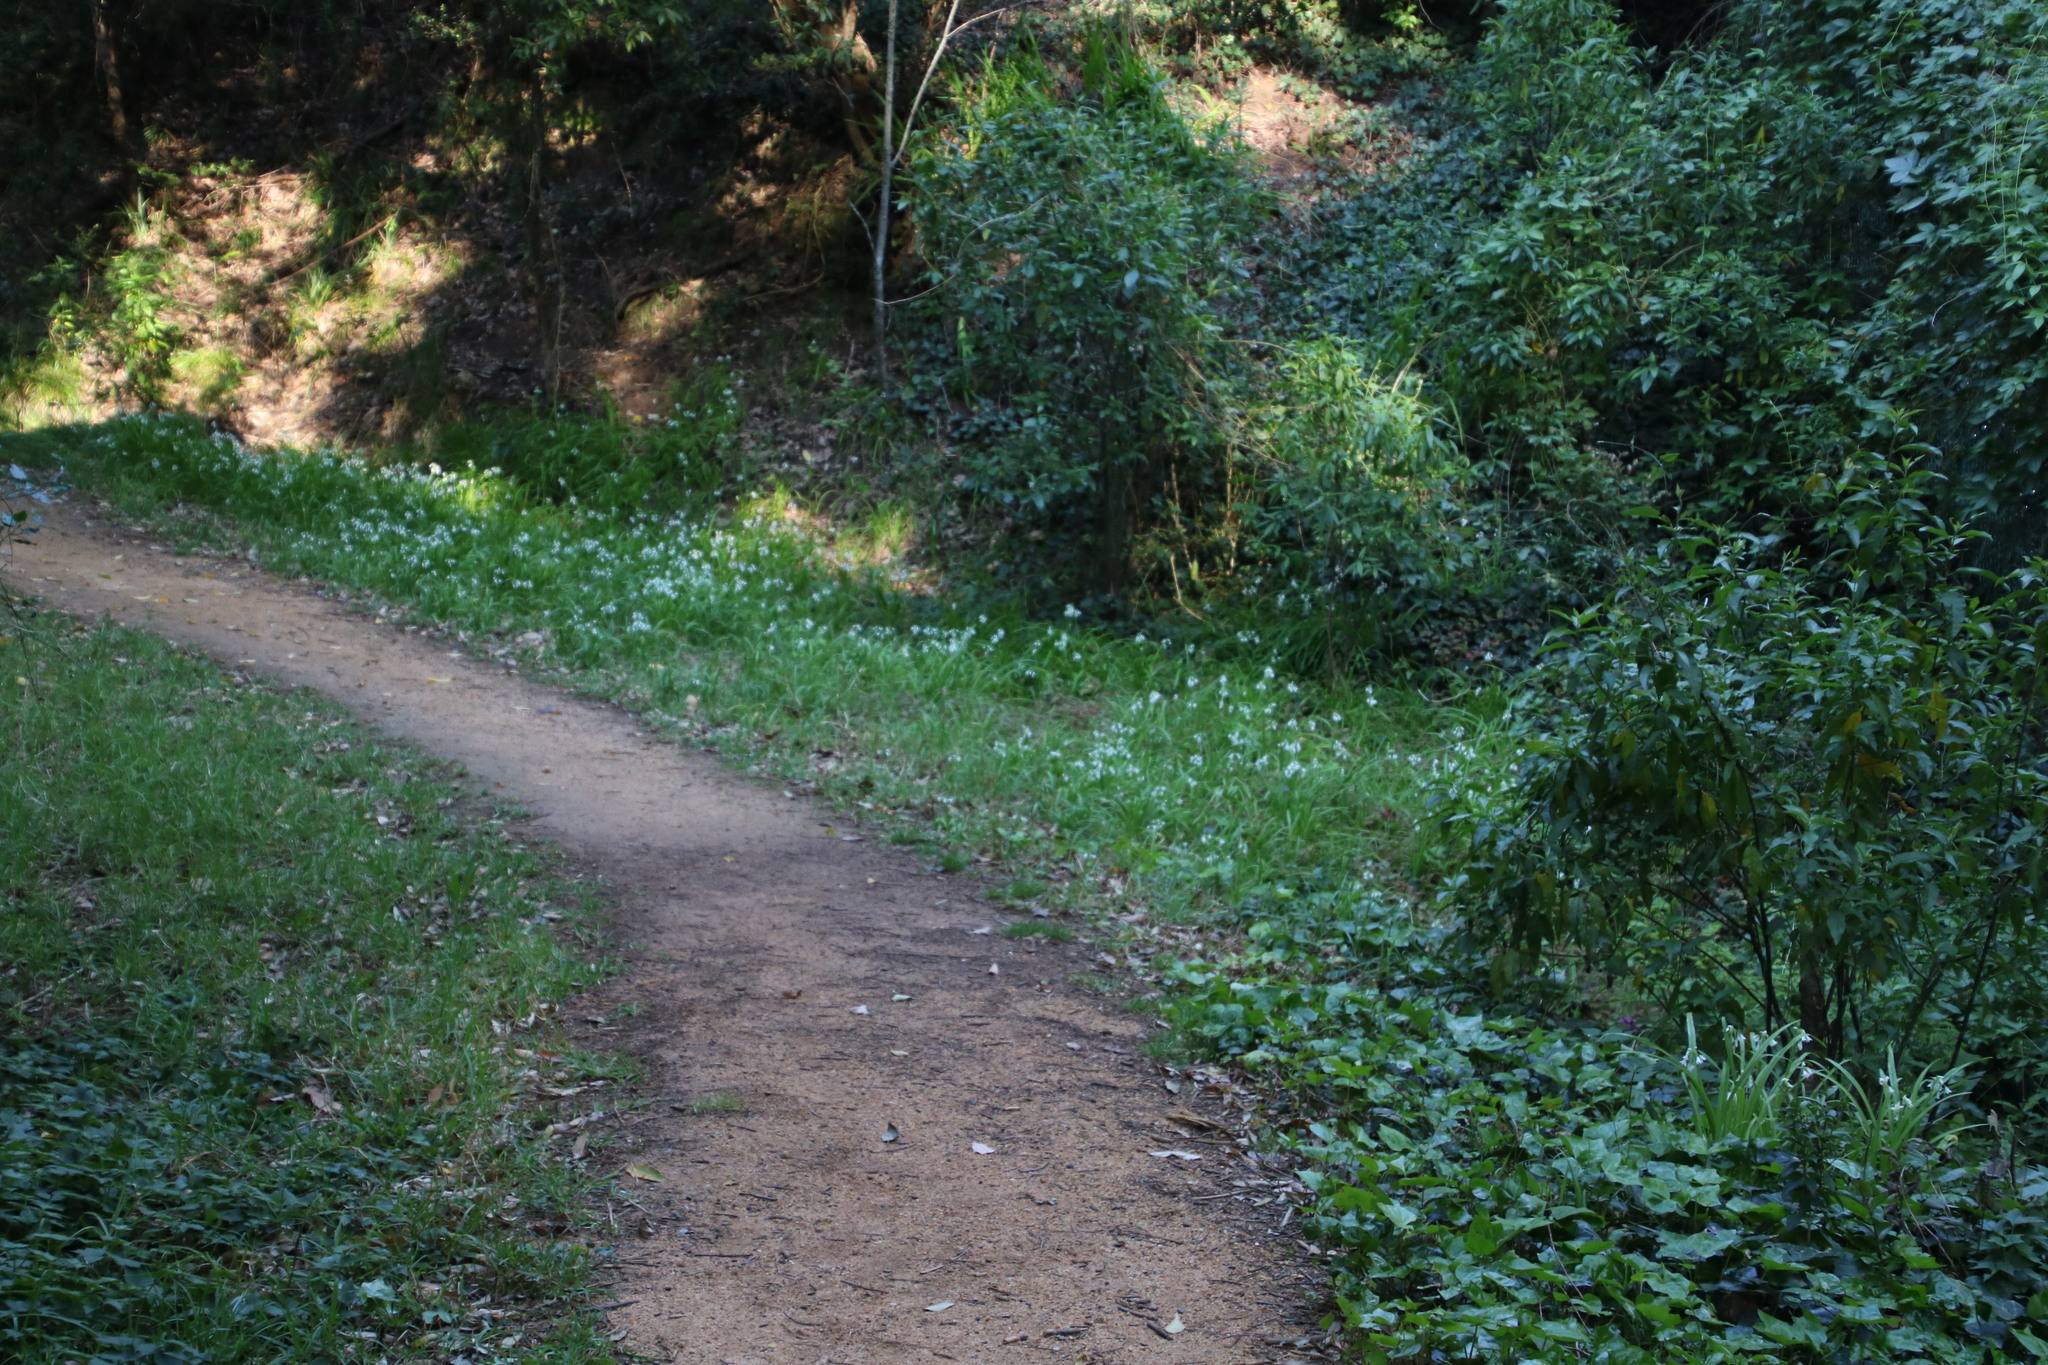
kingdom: Plantae
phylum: Tracheophyta
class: Liliopsida
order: Asparagales
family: Amaryllidaceae
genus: Allium
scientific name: Allium triquetrum
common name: Three-cornered garlic
